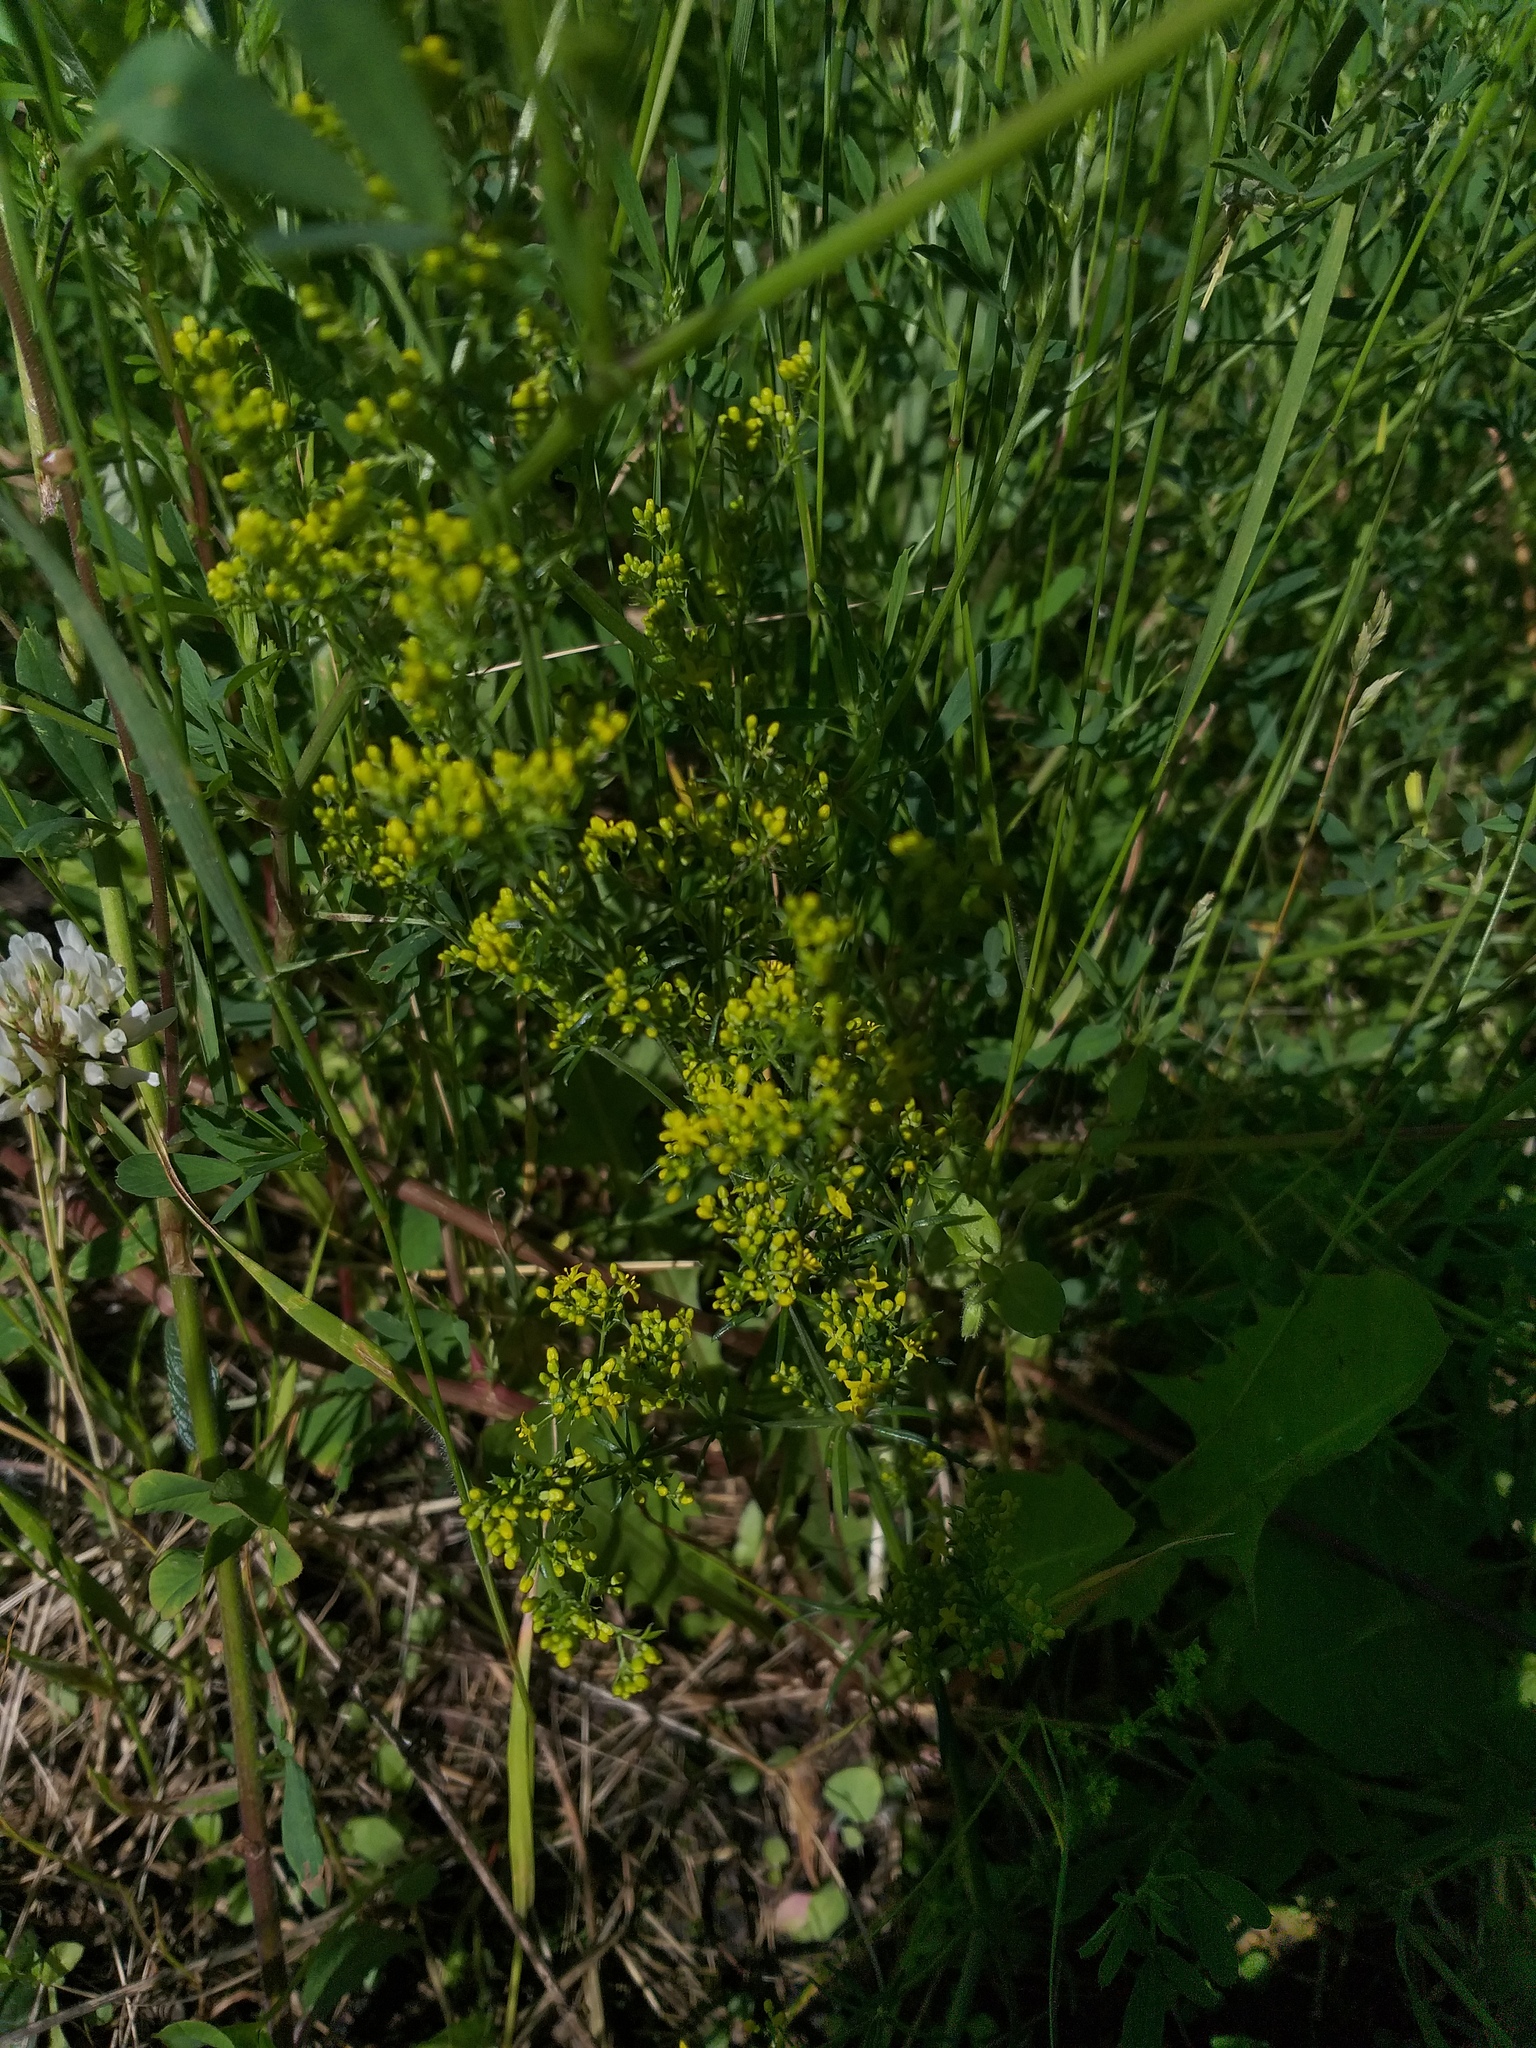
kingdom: Plantae
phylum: Tracheophyta
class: Magnoliopsida
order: Gentianales
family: Rubiaceae
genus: Galium
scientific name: Galium verum
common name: Lady's bedstraw
